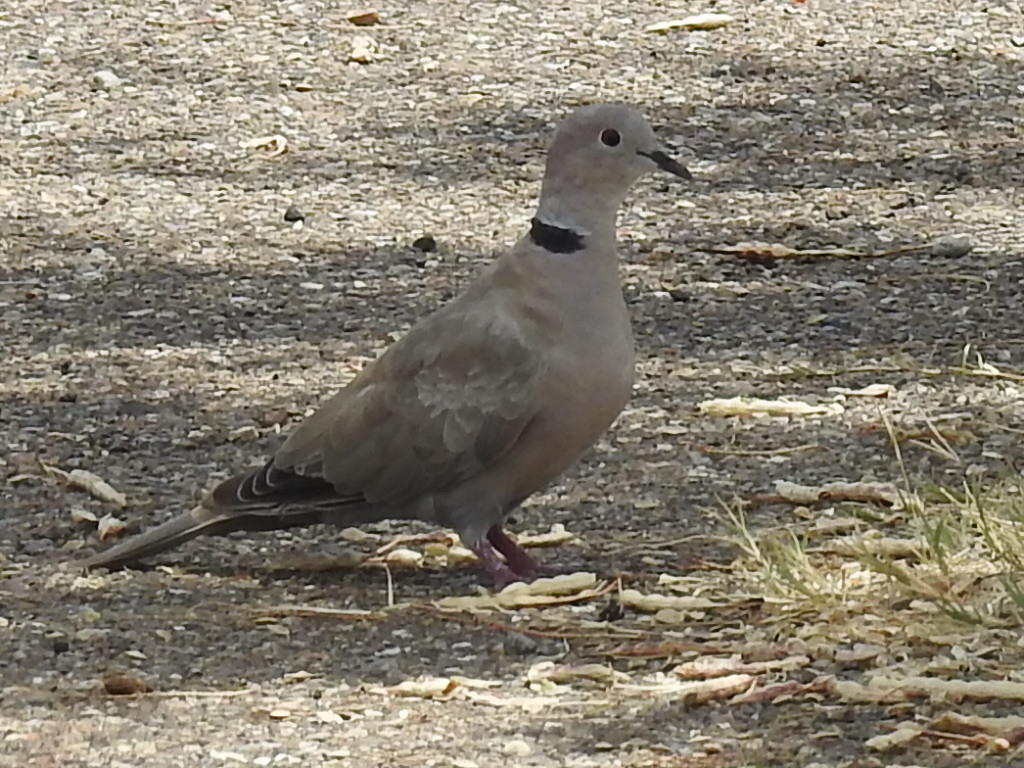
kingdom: Animalia
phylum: Chordata
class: Aves
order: Columbiformes
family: Columbidae
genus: Streptopelia
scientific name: Streptopelia decaocto
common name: Eurasian collared dove
